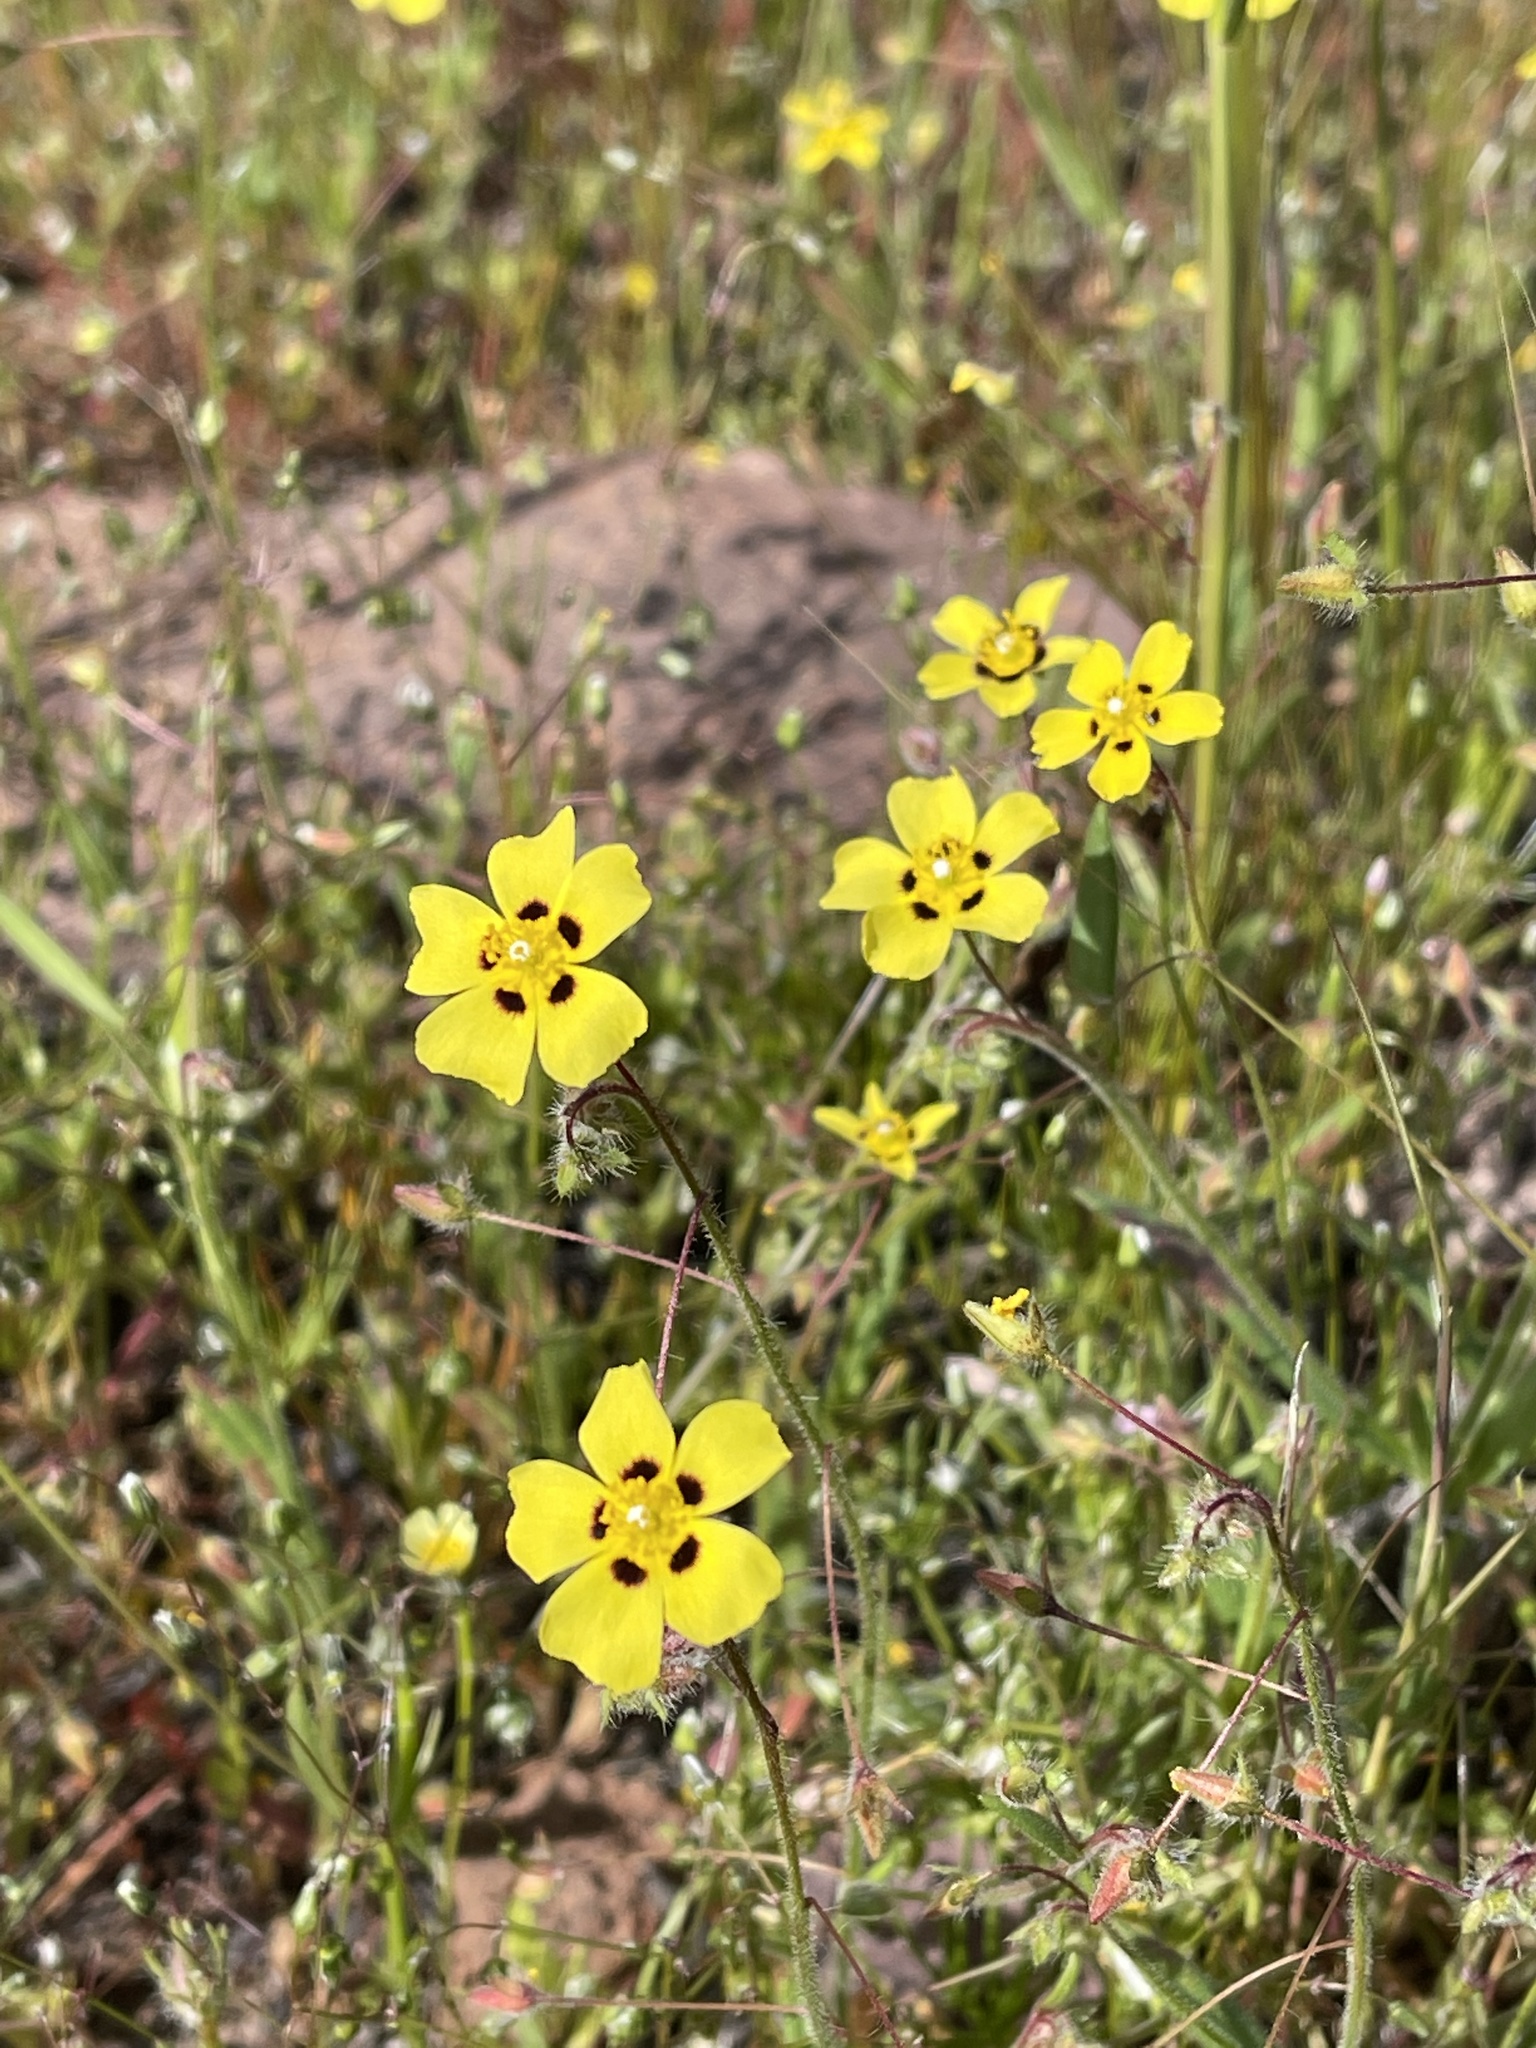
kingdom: Plantae
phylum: Tracheophyta
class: Magnoliopsida
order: Malvales
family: Cistaceae
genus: Tuberaria
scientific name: Tuberaria guttata
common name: Spotted rock-rose
